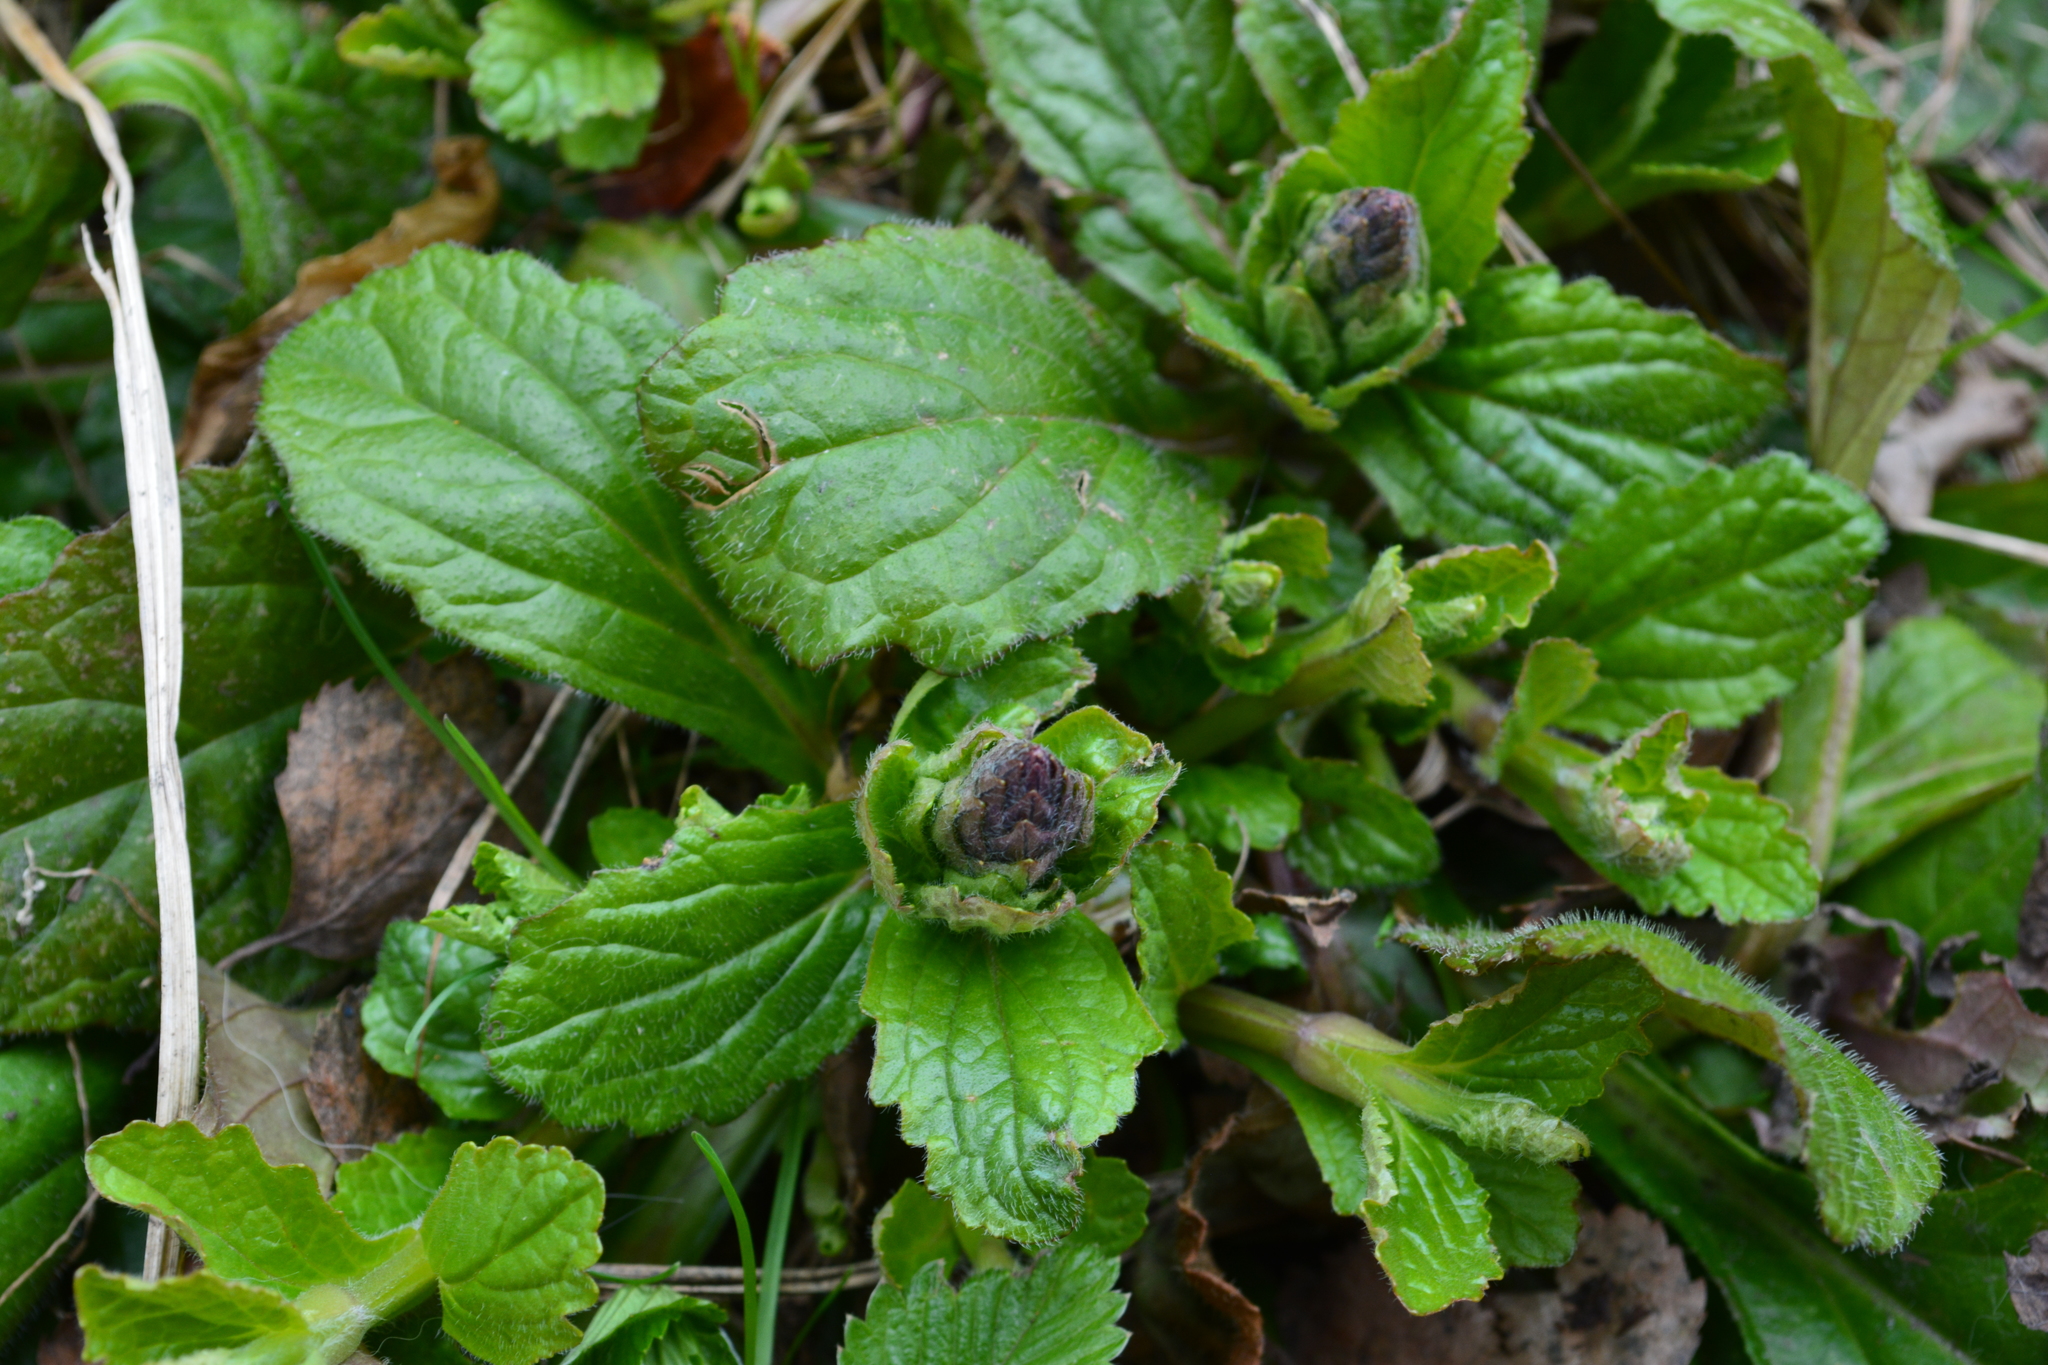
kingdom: Plantae
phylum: Tracheophyta
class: Magnoliopsida
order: Lamiales
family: Lamiaceae
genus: Ajuga
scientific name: Ajuga reptans
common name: Bugle
